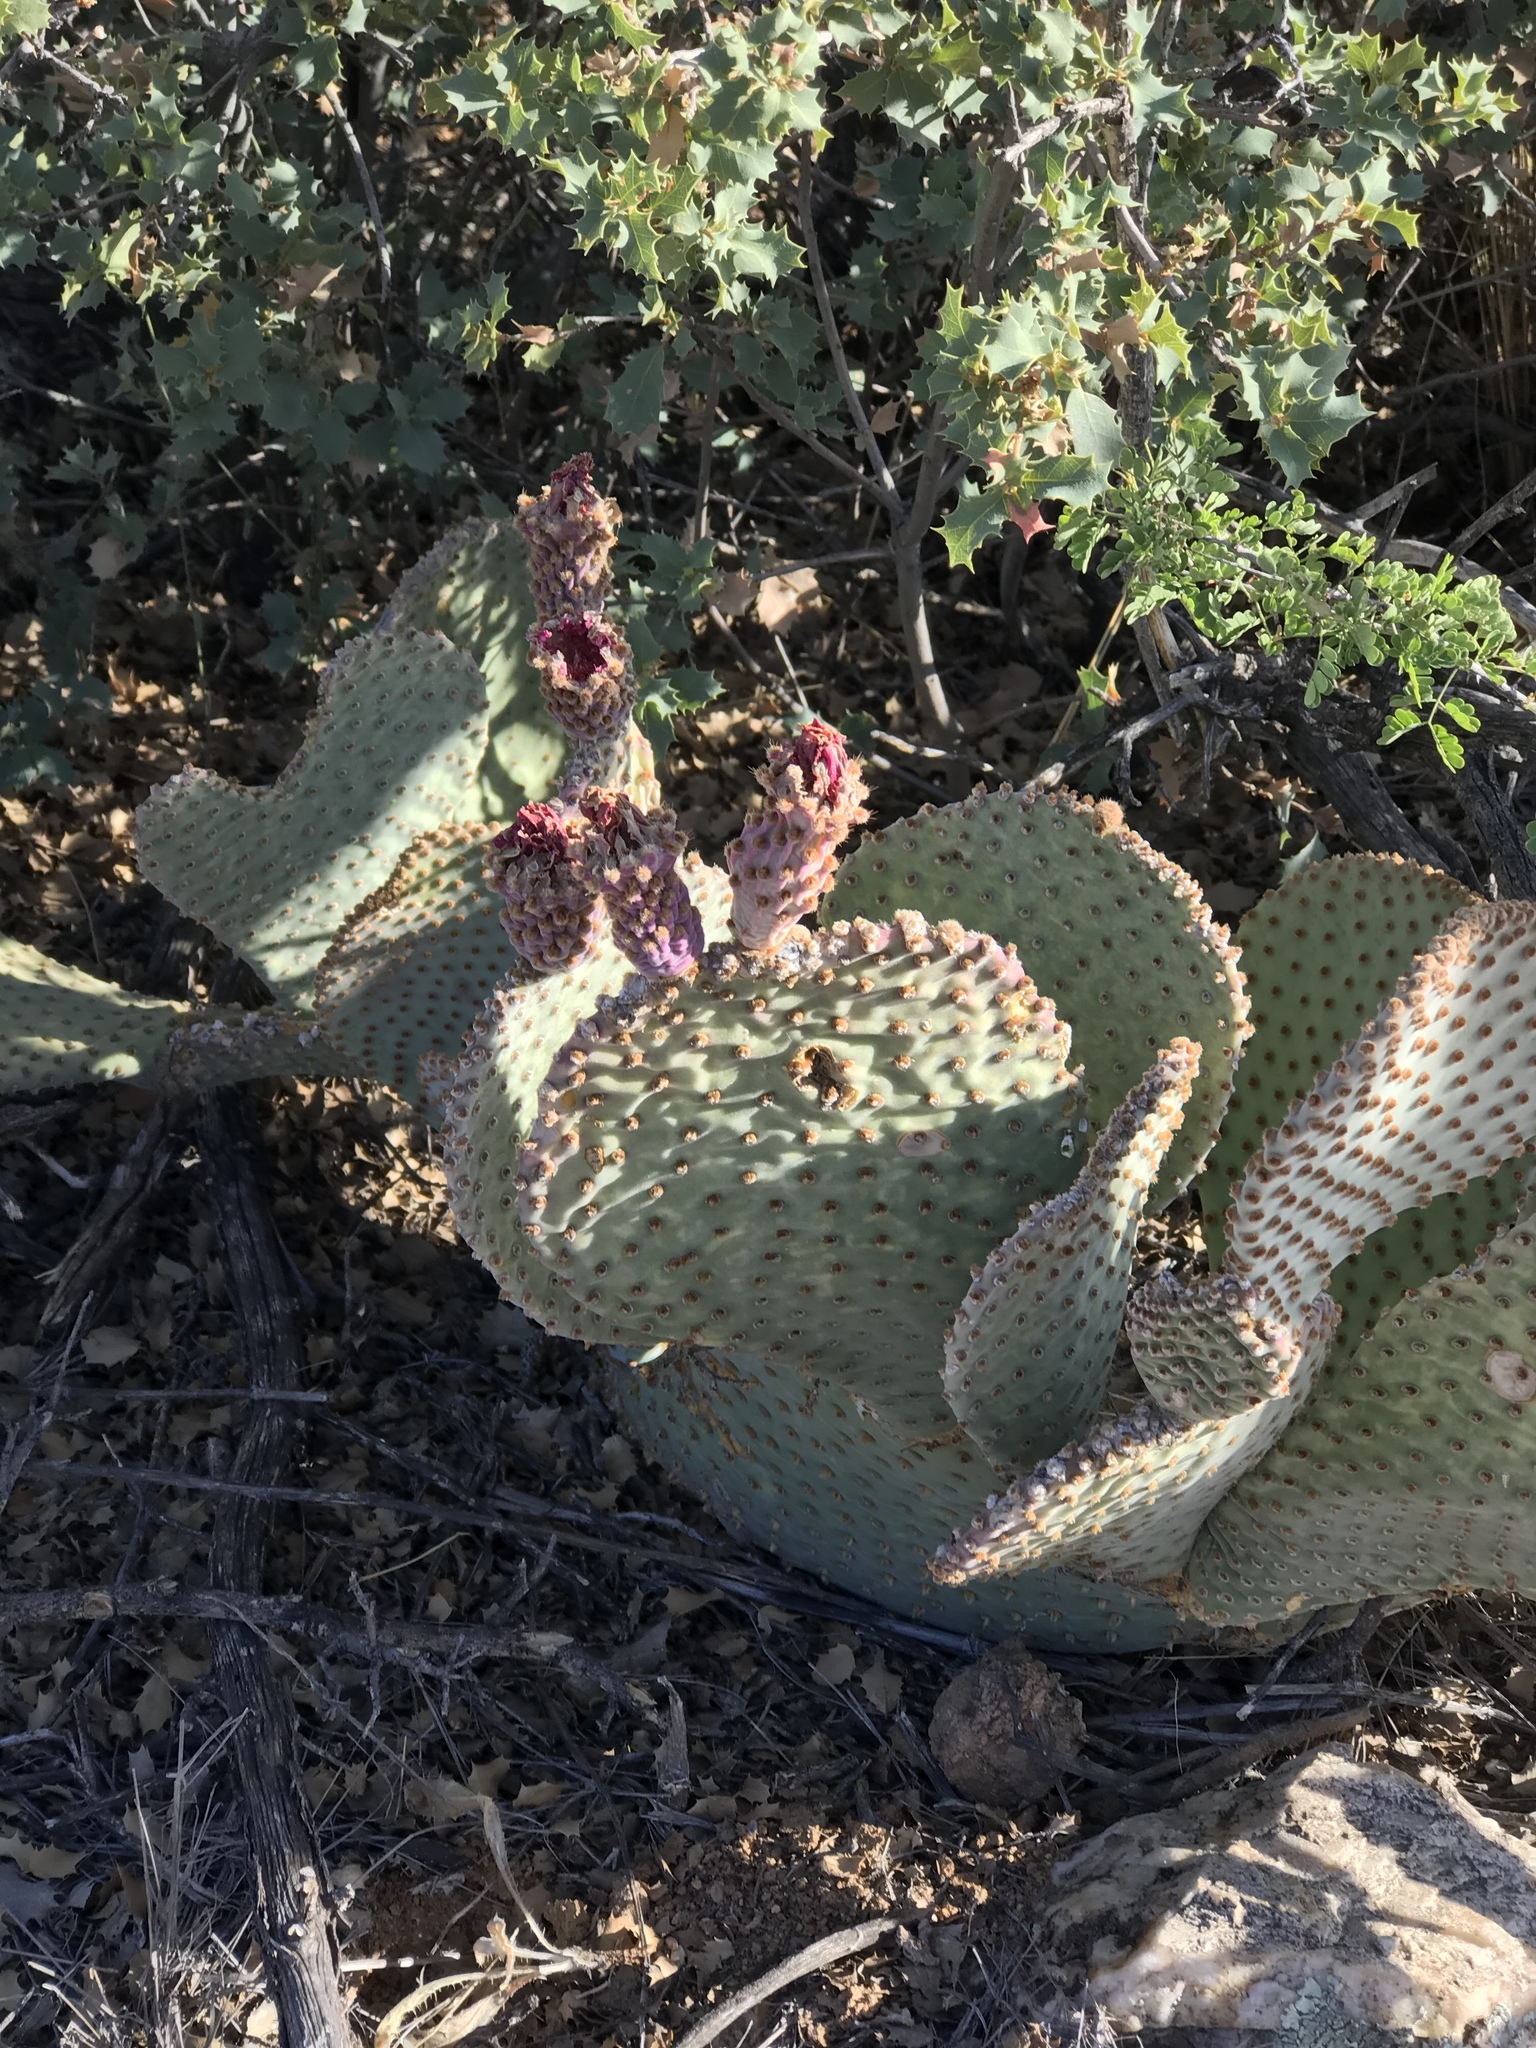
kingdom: Plantae
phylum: Tracheophyta
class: Magnoliopsida
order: Caryophyllales
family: Cactaceae
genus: Opuntia
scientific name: Opuntia basilaris
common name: Beavertail prickly-pear
